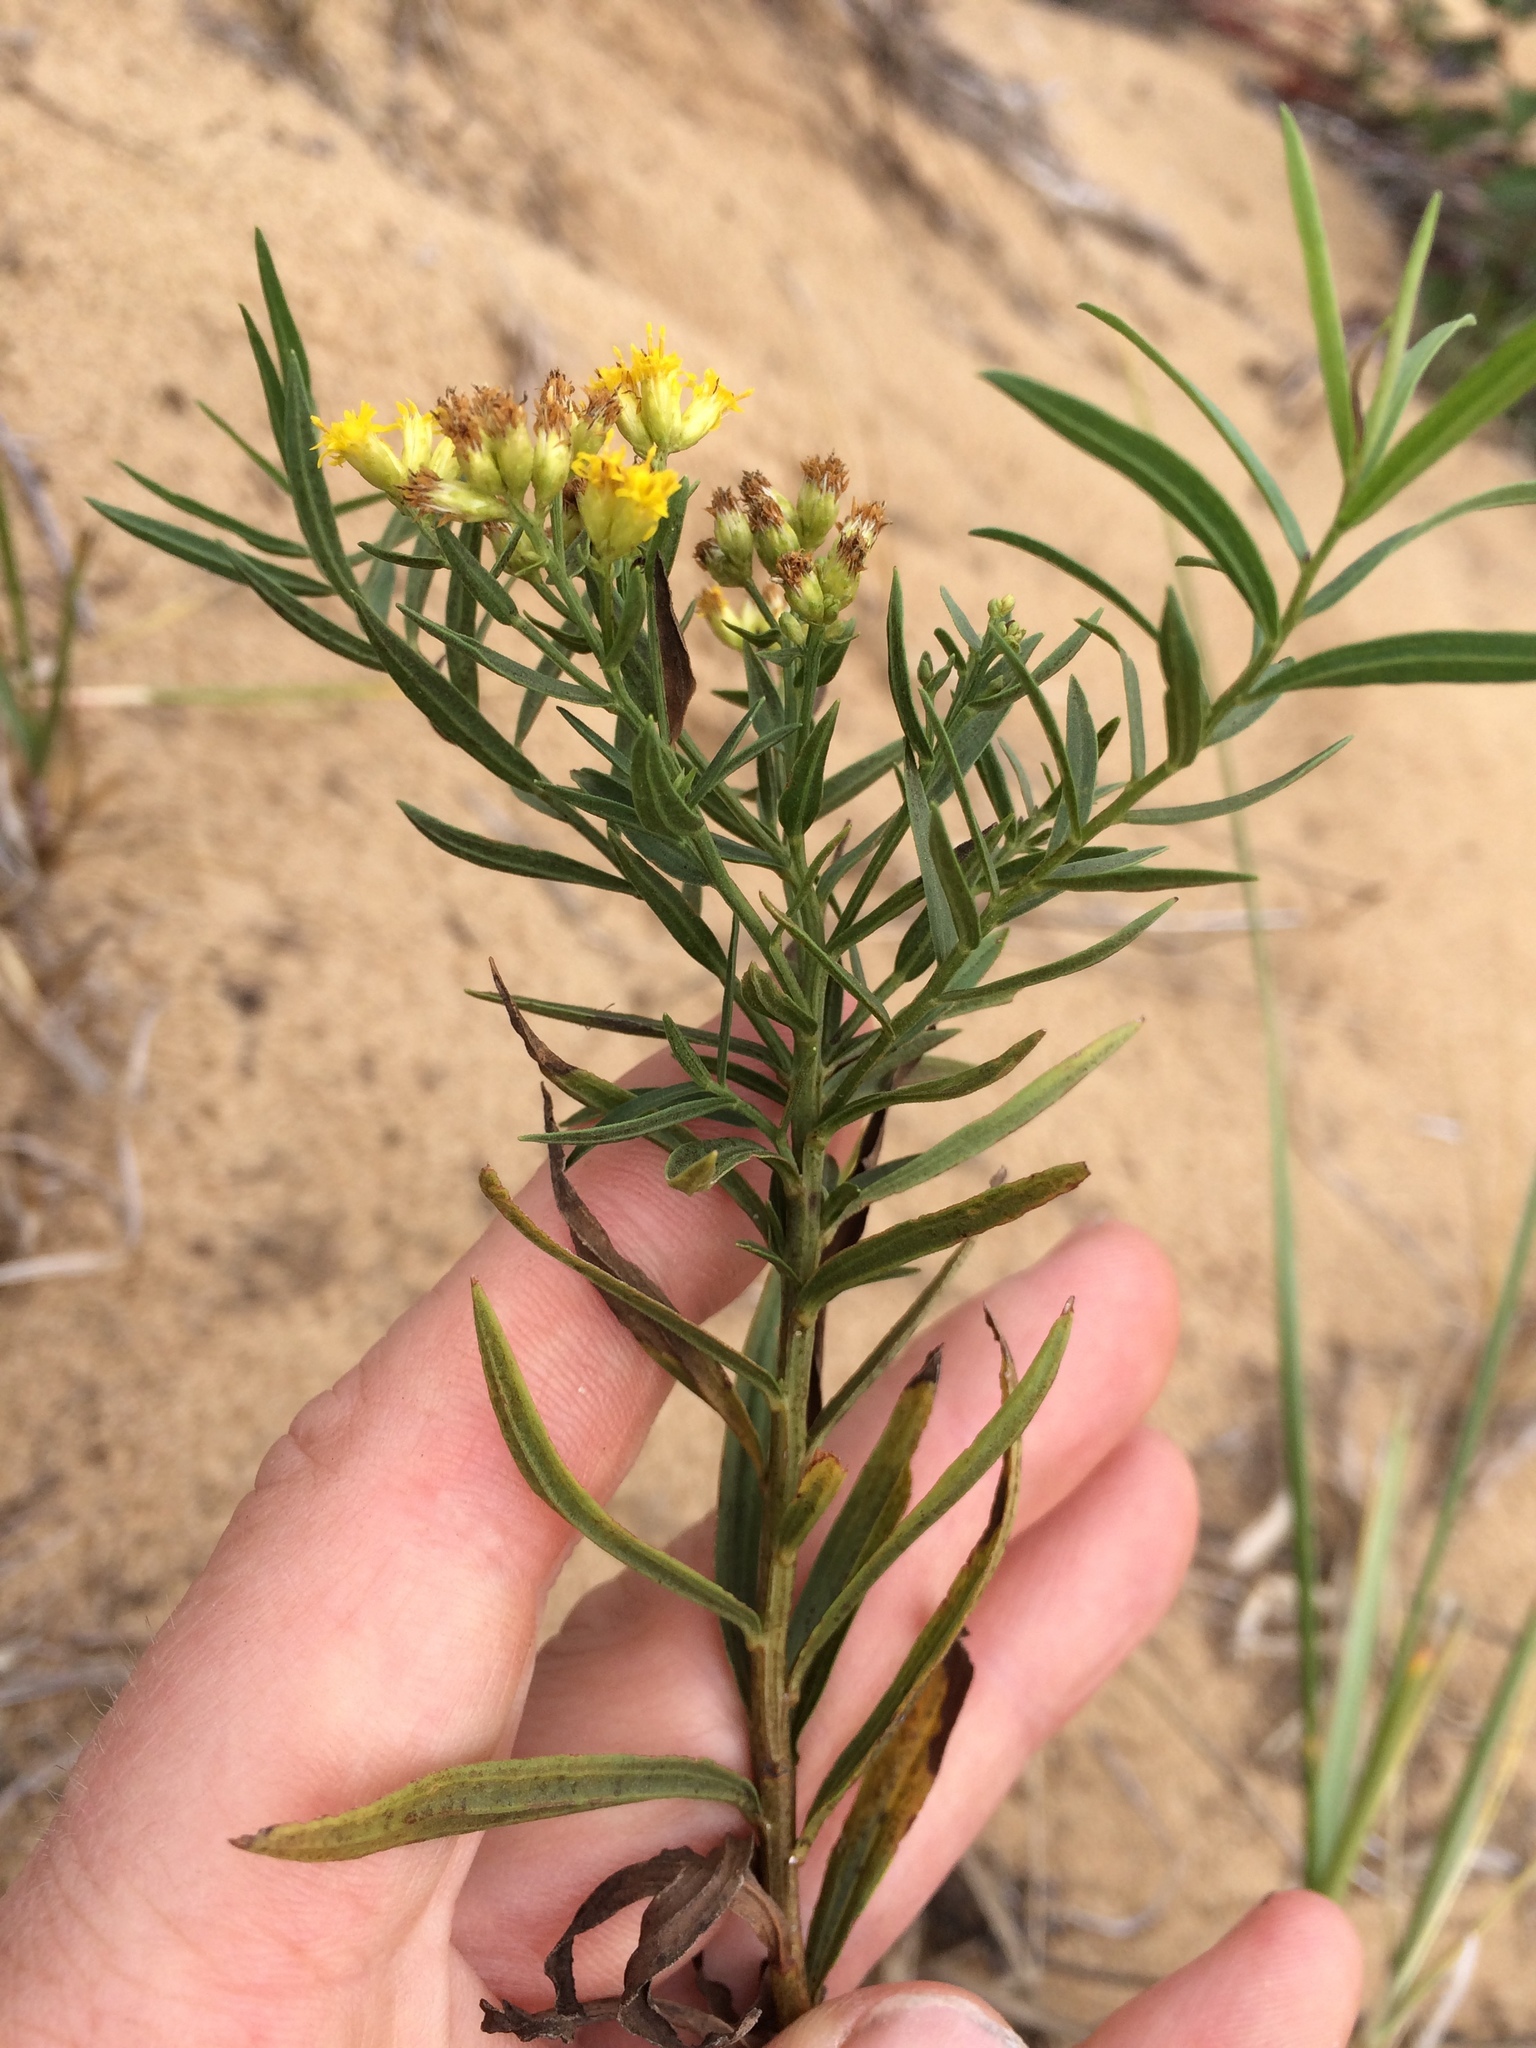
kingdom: Plantae
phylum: Tracheophyta
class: Magnoliopsida
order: Asterales
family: Asteraceae
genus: Euthamia
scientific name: Euthamia graminifolia
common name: Common goldentop
